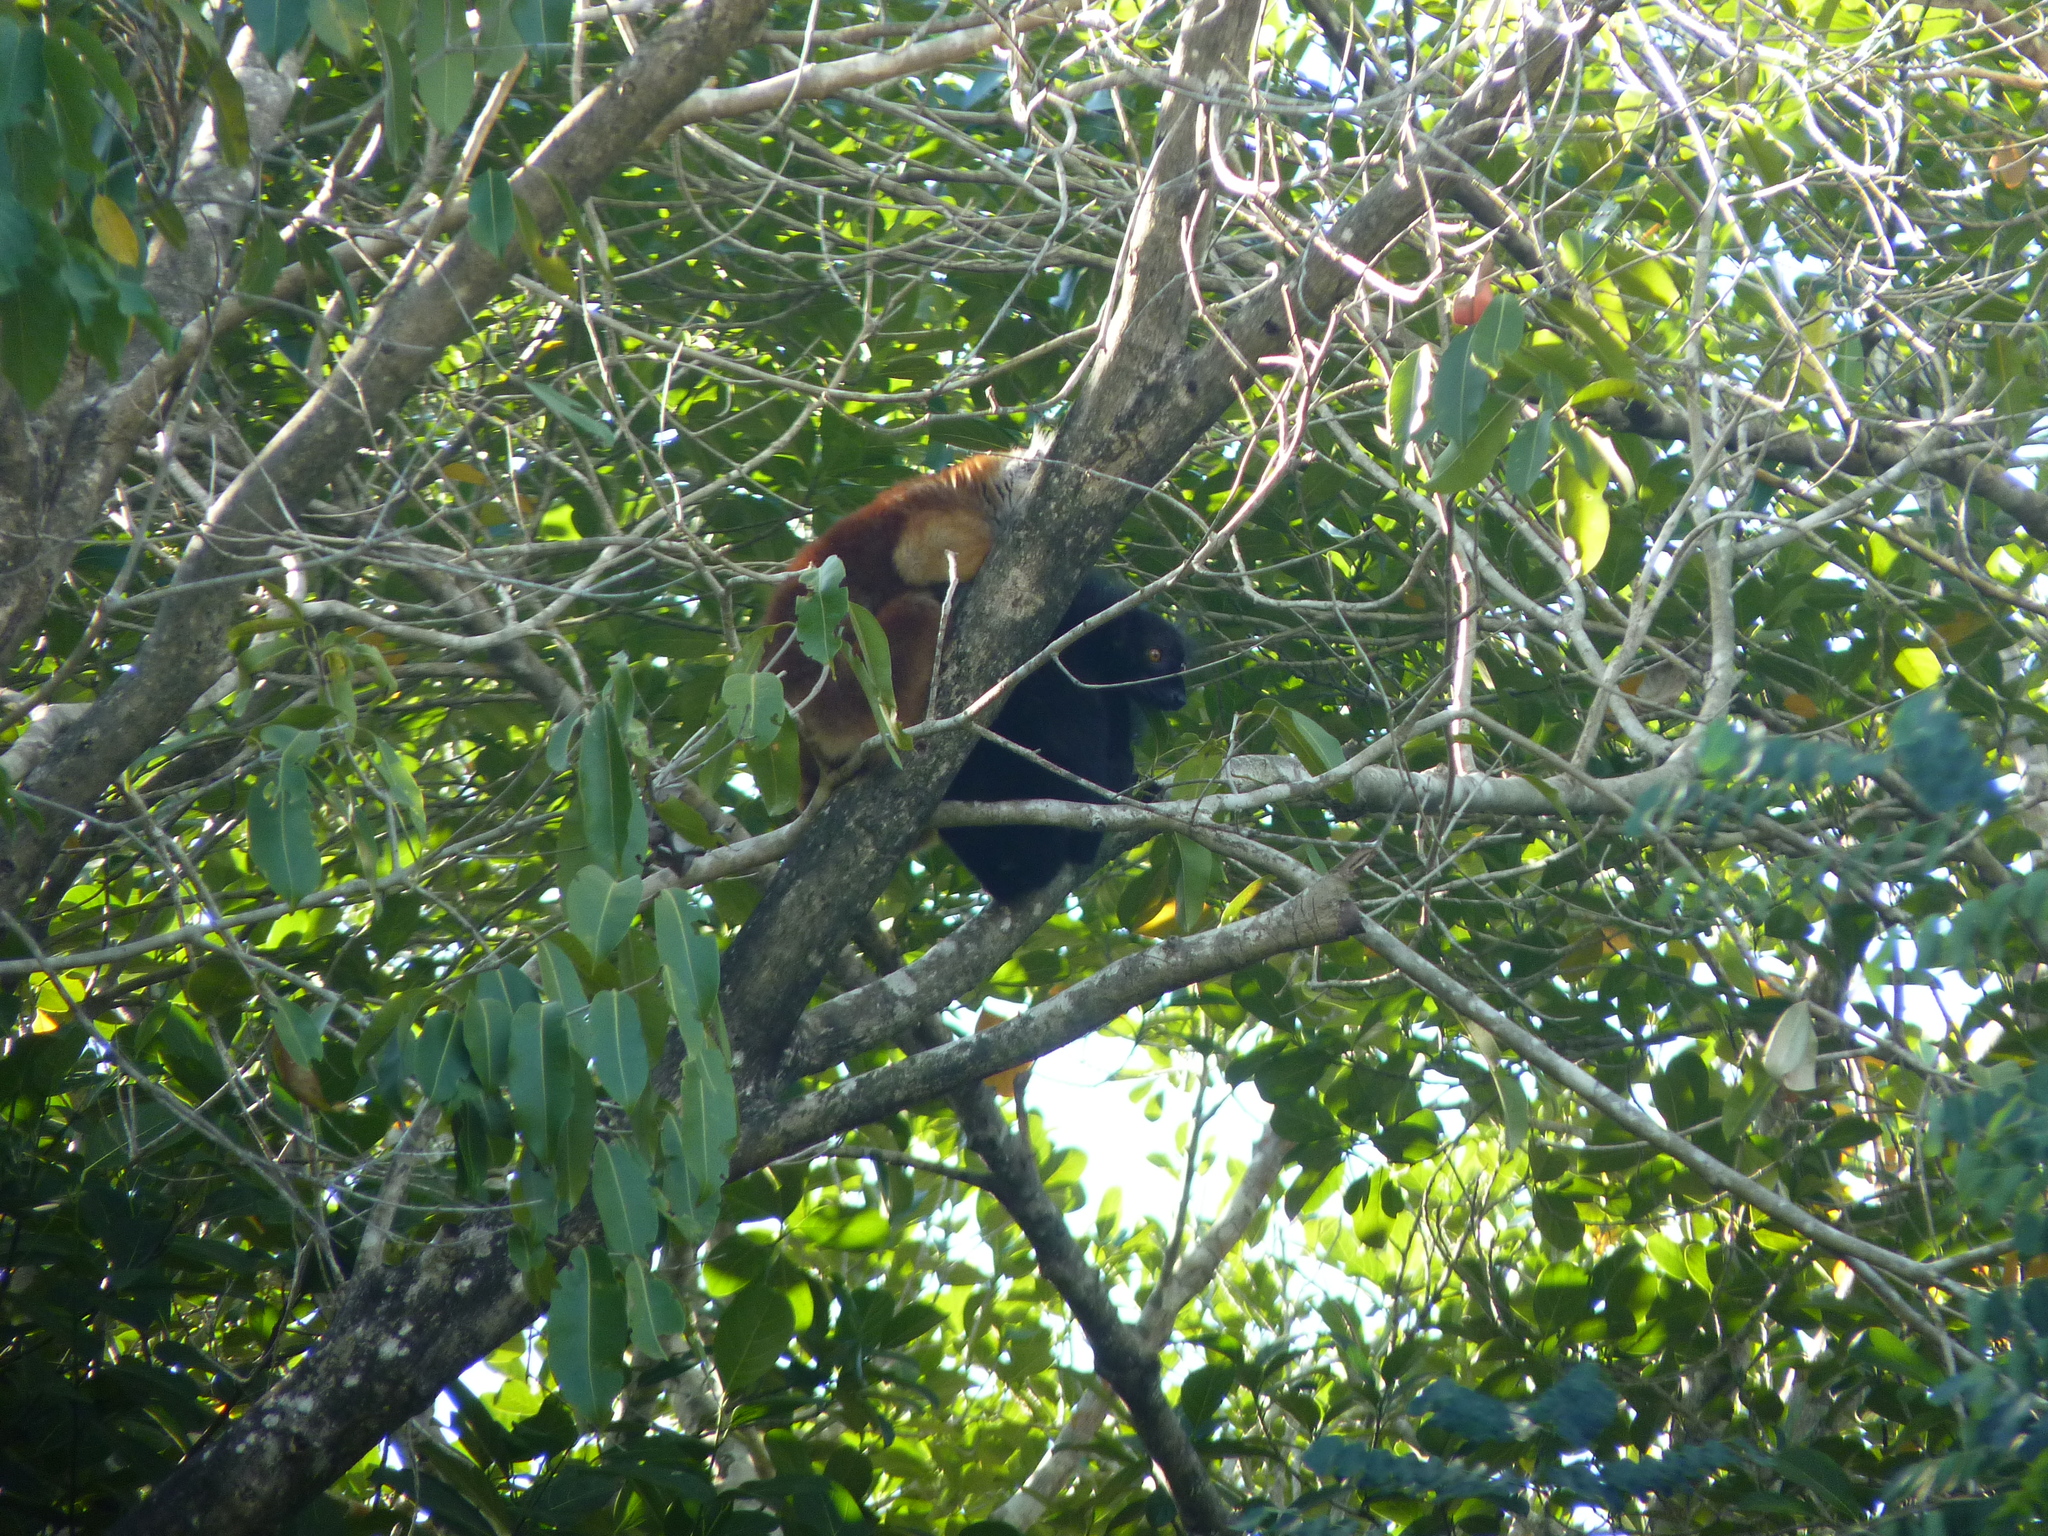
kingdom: Animalia
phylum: Chordata
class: Mammalia
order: Primates
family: Lemuridae
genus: Eulemur
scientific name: Eulemur macaco
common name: Black lemur
